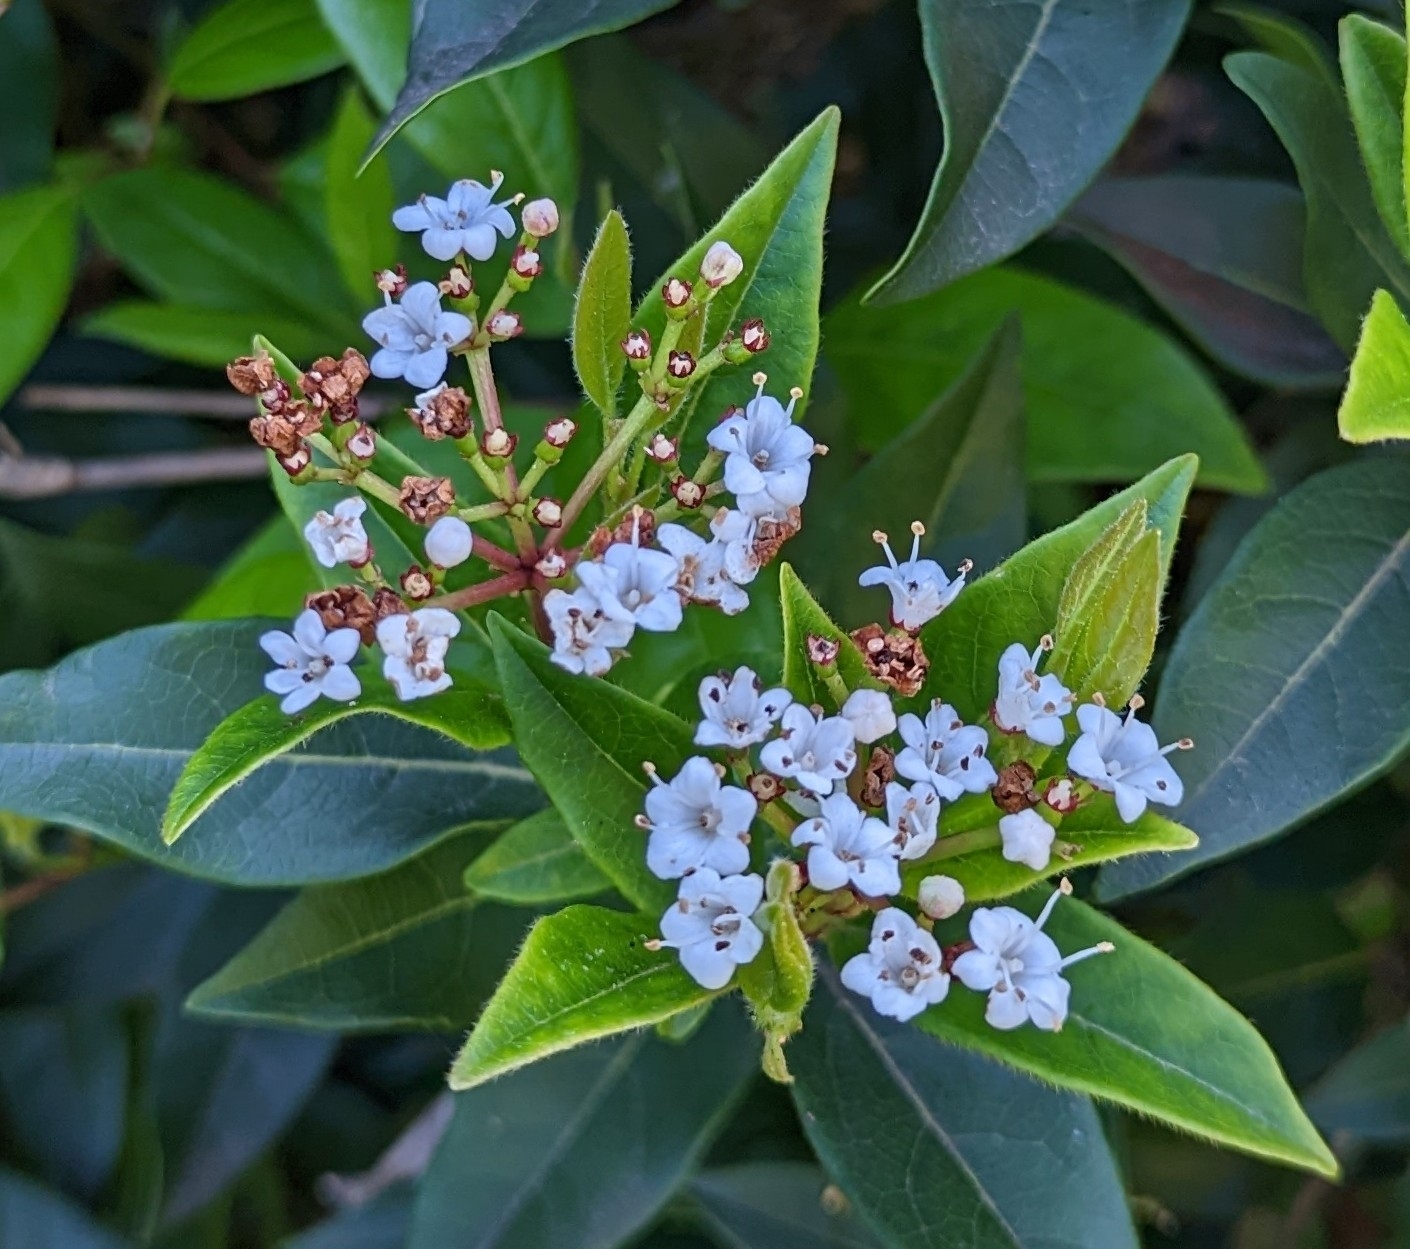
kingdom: Plantae
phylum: Tracheophyta
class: Magnoliopsida
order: Dipsacales
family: Viburnaceae
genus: Viburnum
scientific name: Viburnum tinus
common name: Laurustinus
